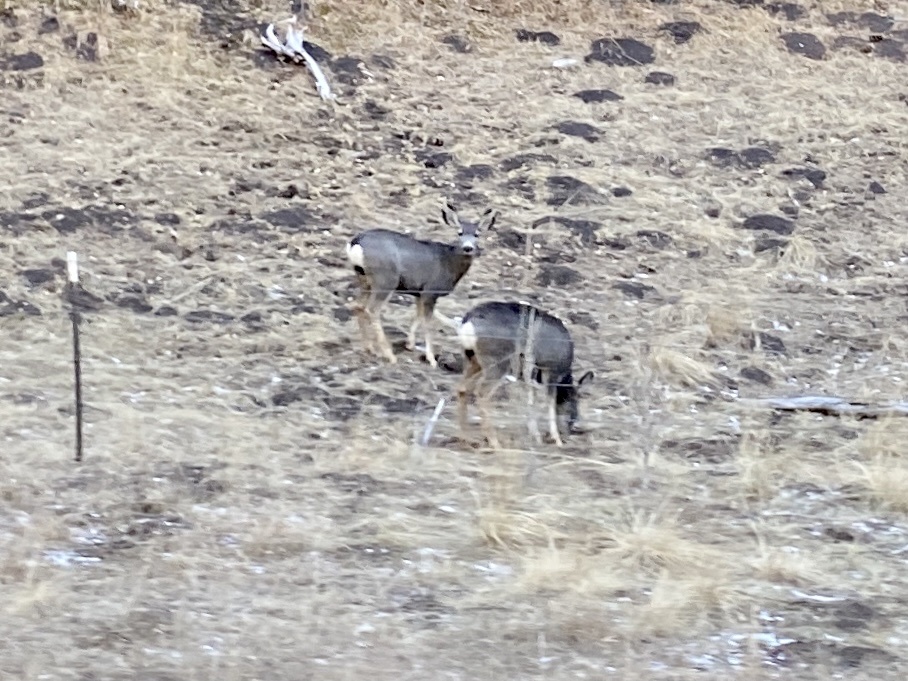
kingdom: Animalia
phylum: Chordata
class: Mammalia
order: Artiodactyla
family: Cervidae
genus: Odocoileus
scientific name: Odocoileus hemionus
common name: Mule deer
